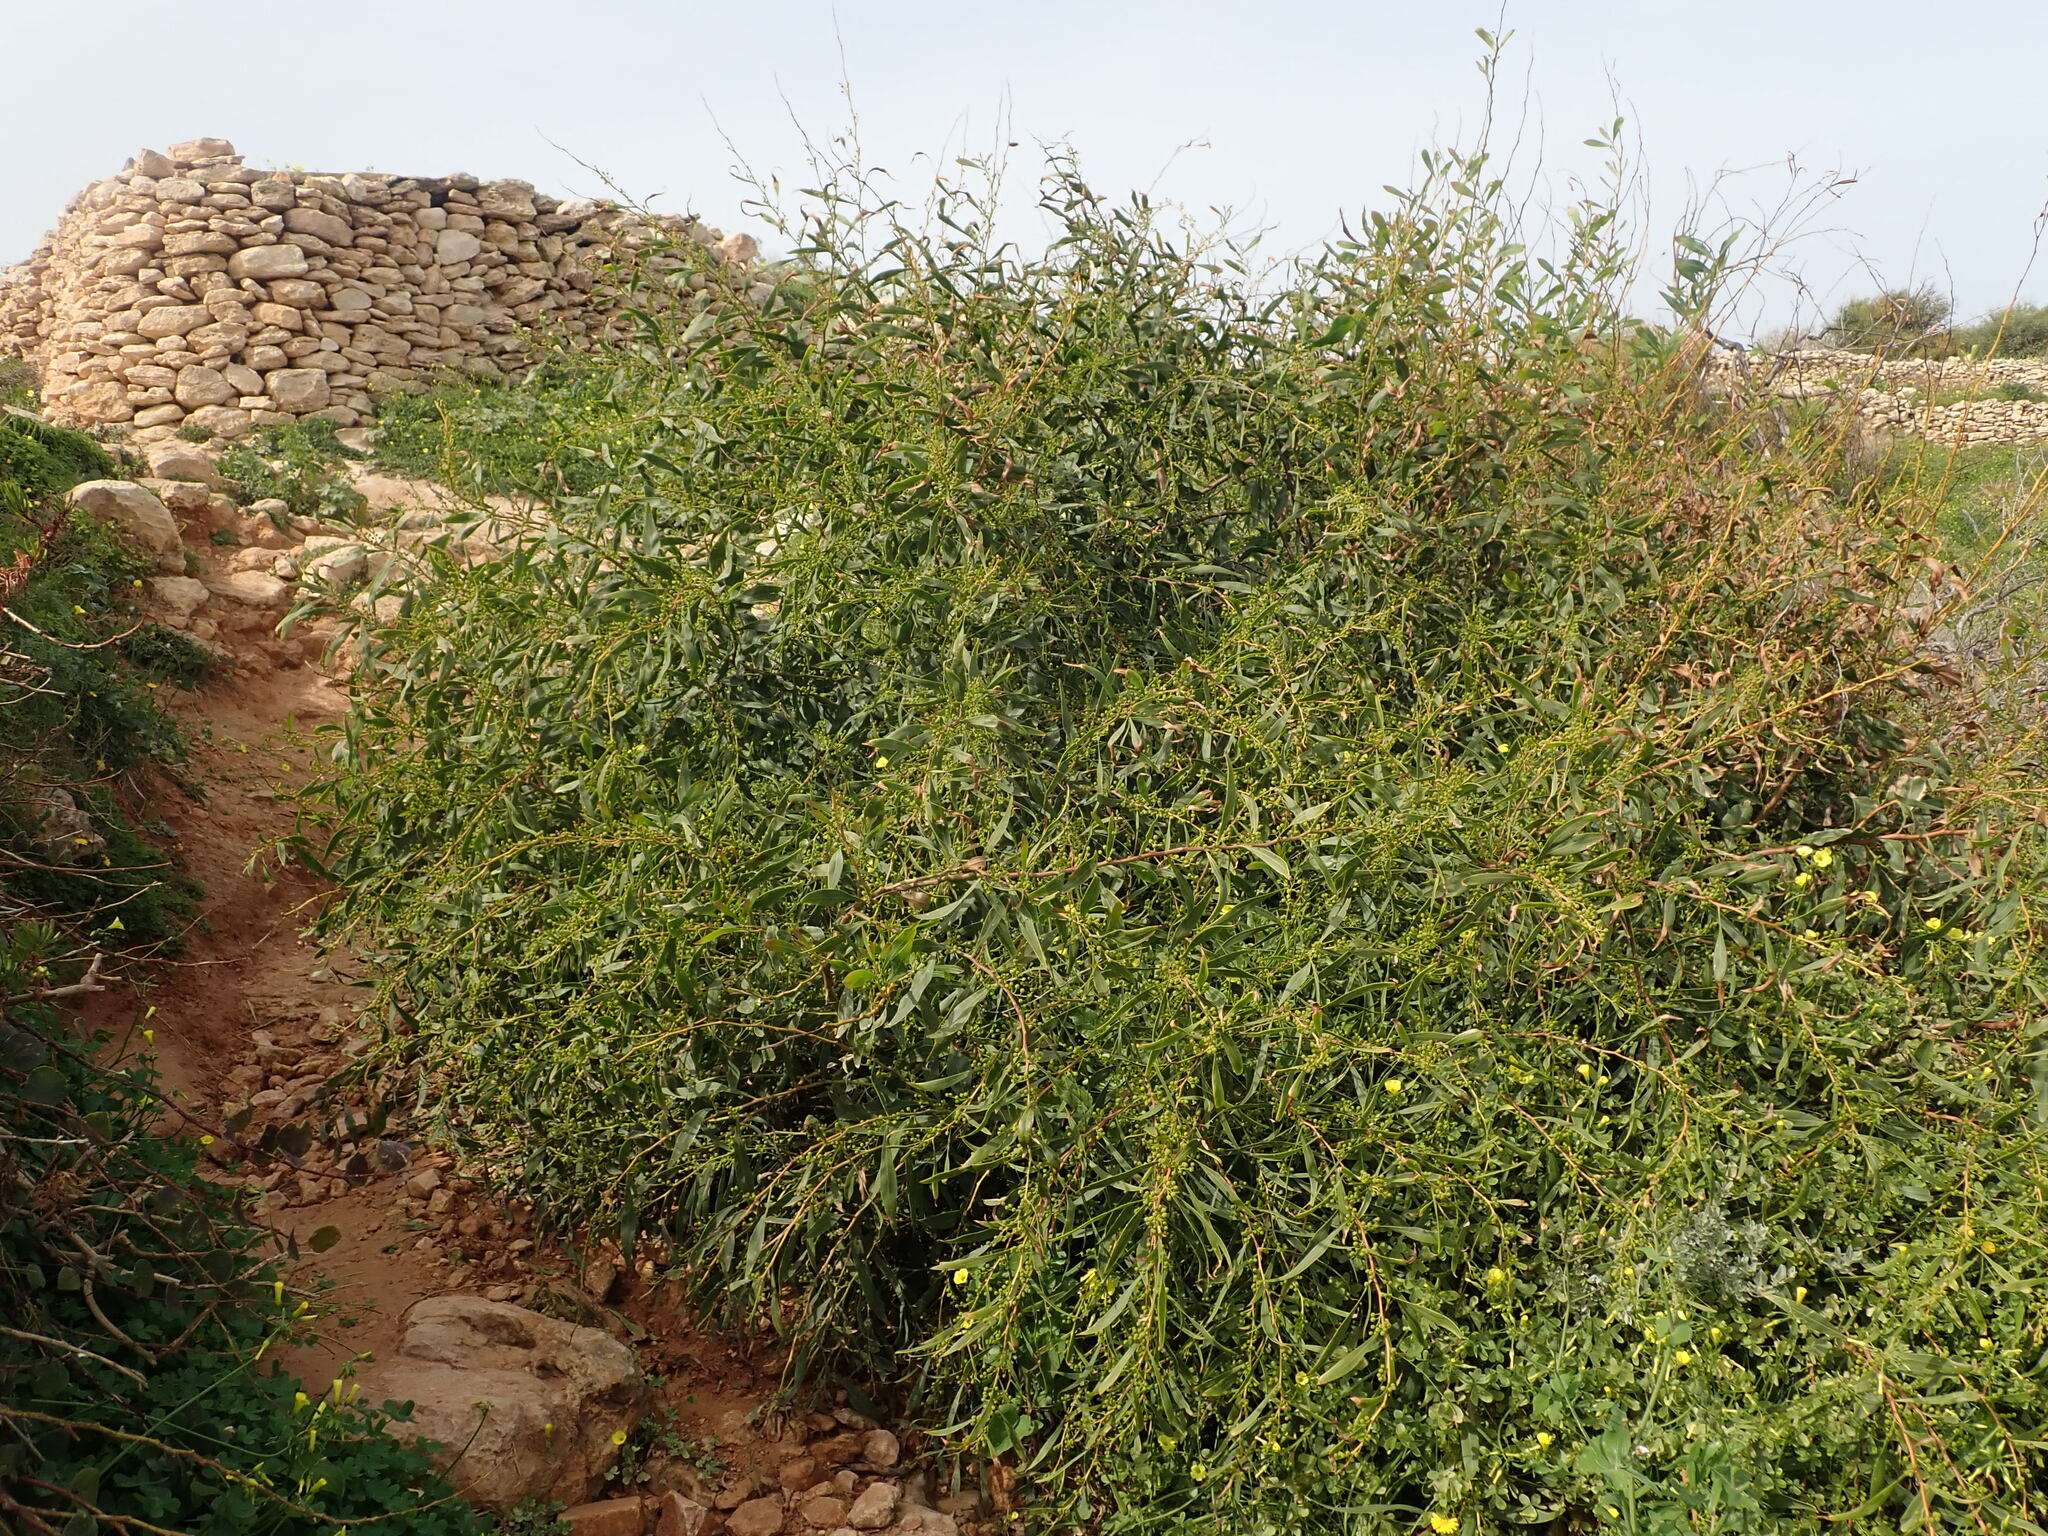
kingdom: Plantae
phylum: Tracheophyta
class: Magnoliopsida
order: Fabales
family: Fabaceae
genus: Acacia
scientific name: Acacia saligna
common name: Orange wattle
